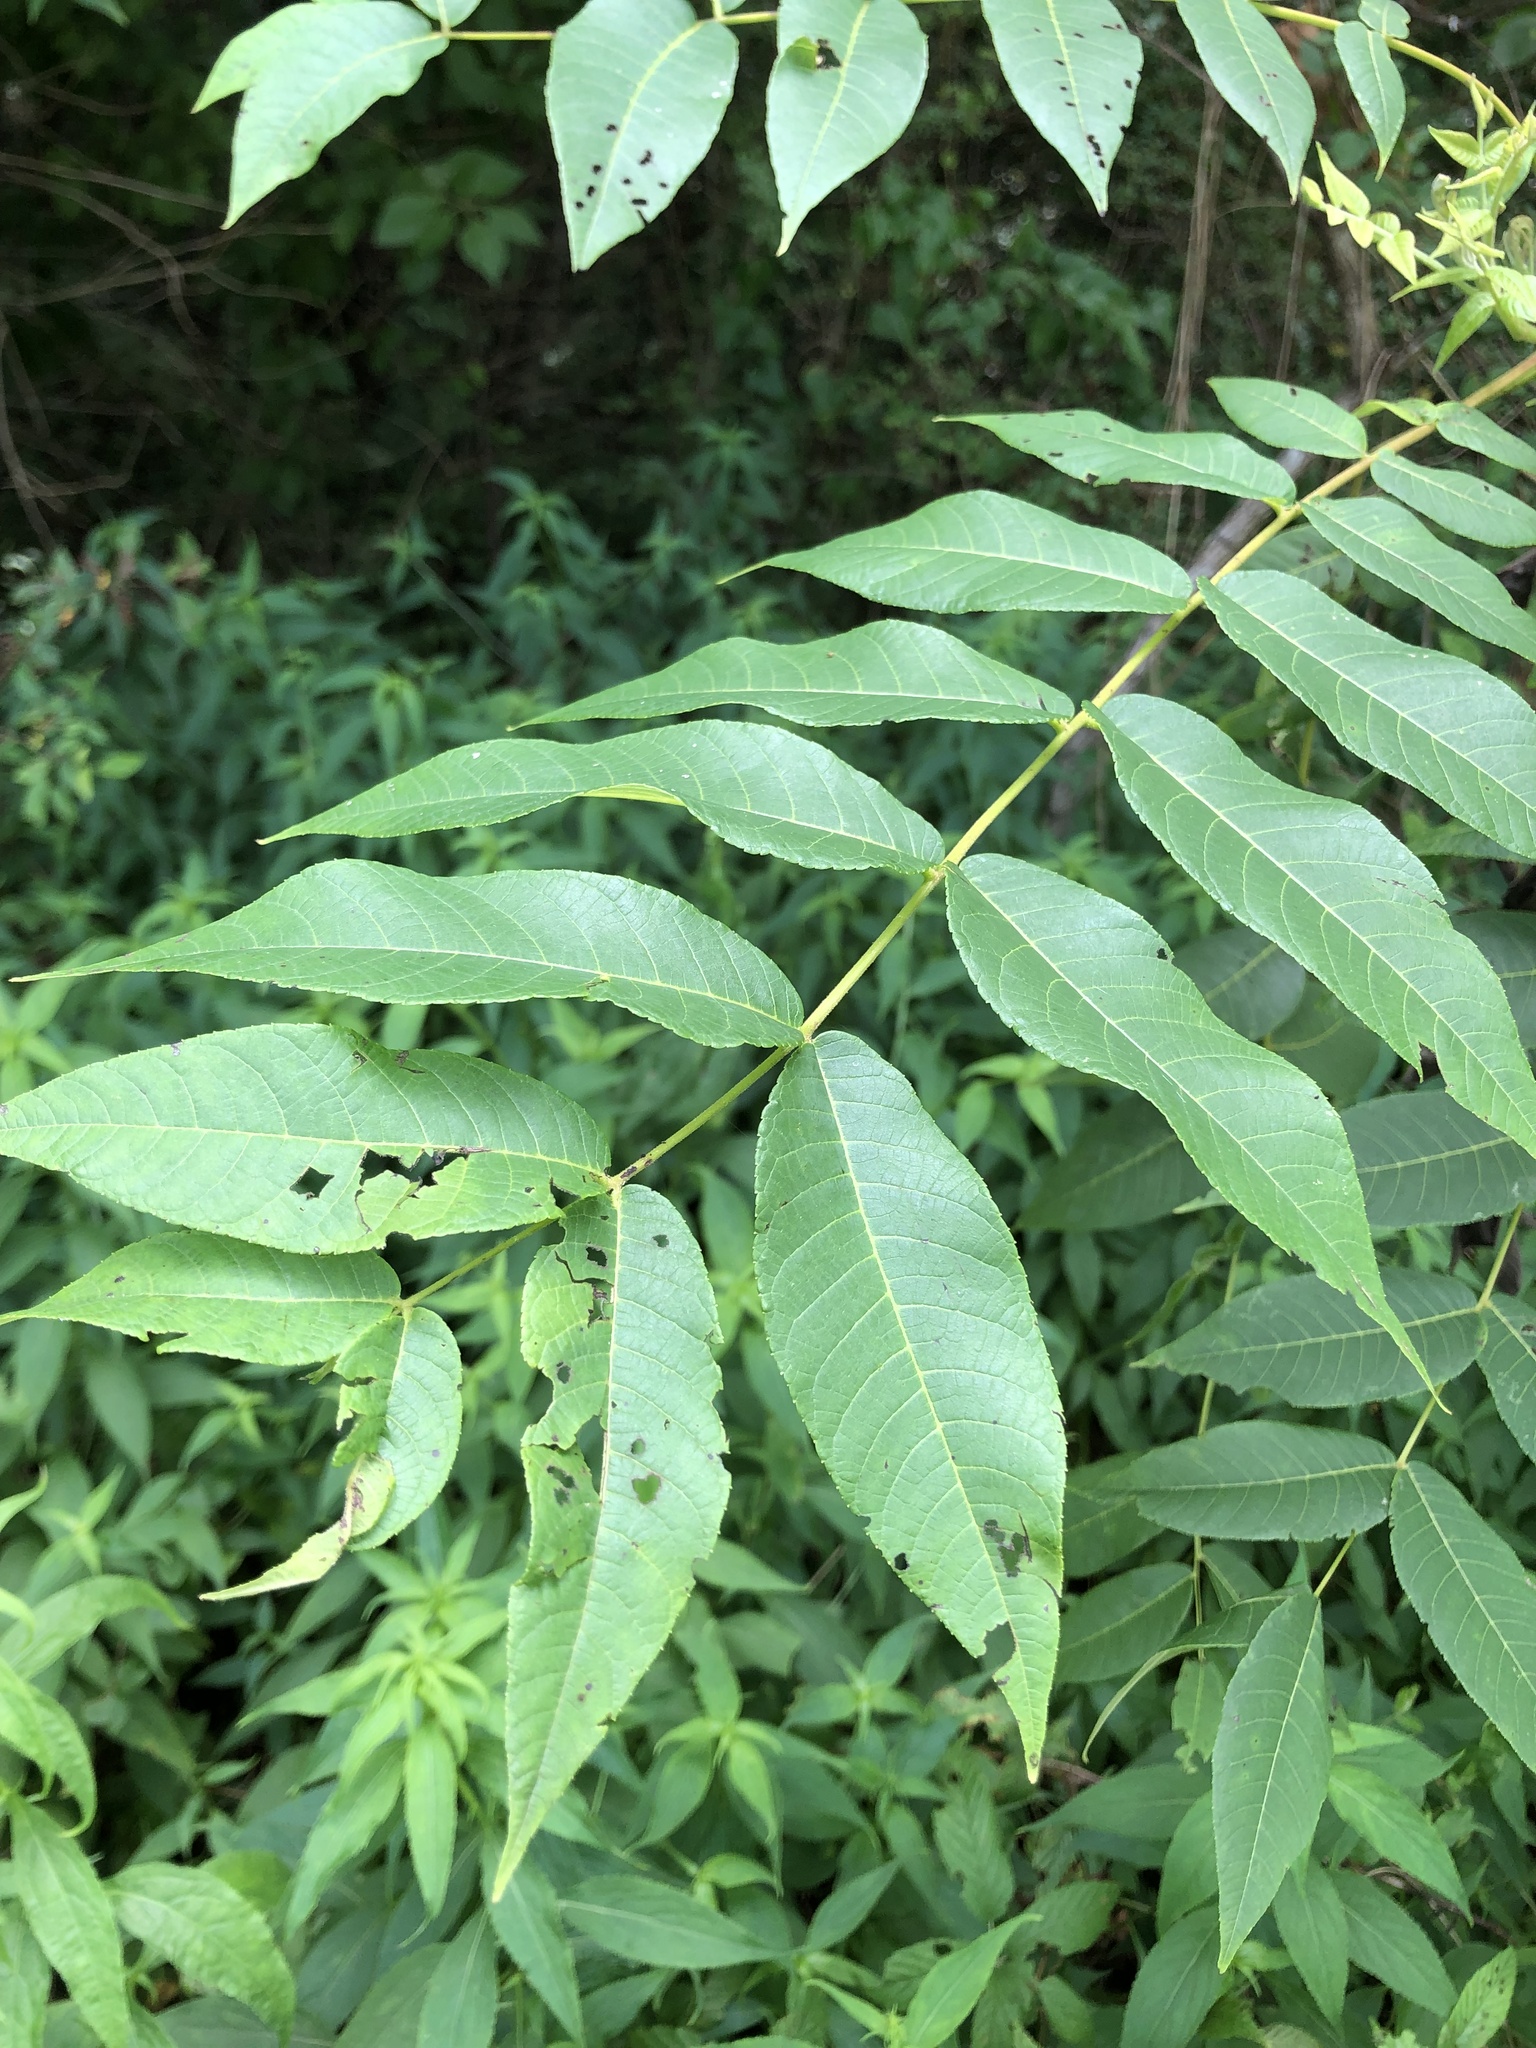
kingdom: Plantae
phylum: Tracheophyta
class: Magnoliopsida
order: Fagales
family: Juglandaceae
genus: Juglans
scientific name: Juglans nigra
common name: Black walnut
